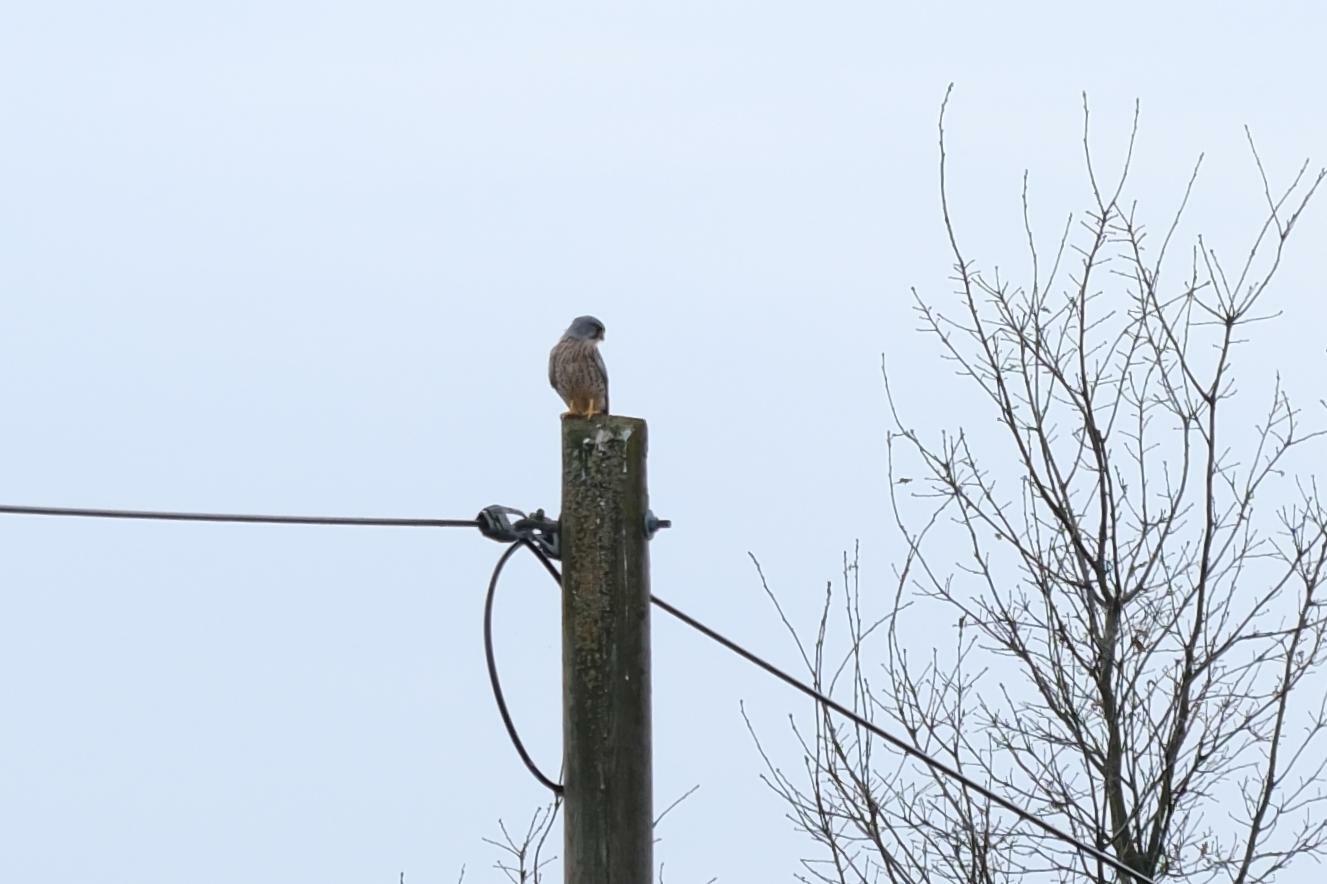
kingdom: Animalia
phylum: Chordata
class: Aves
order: Falconiformes
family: Falconidae
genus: Falco
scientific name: Falco tinnunculus
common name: Common kestrel
